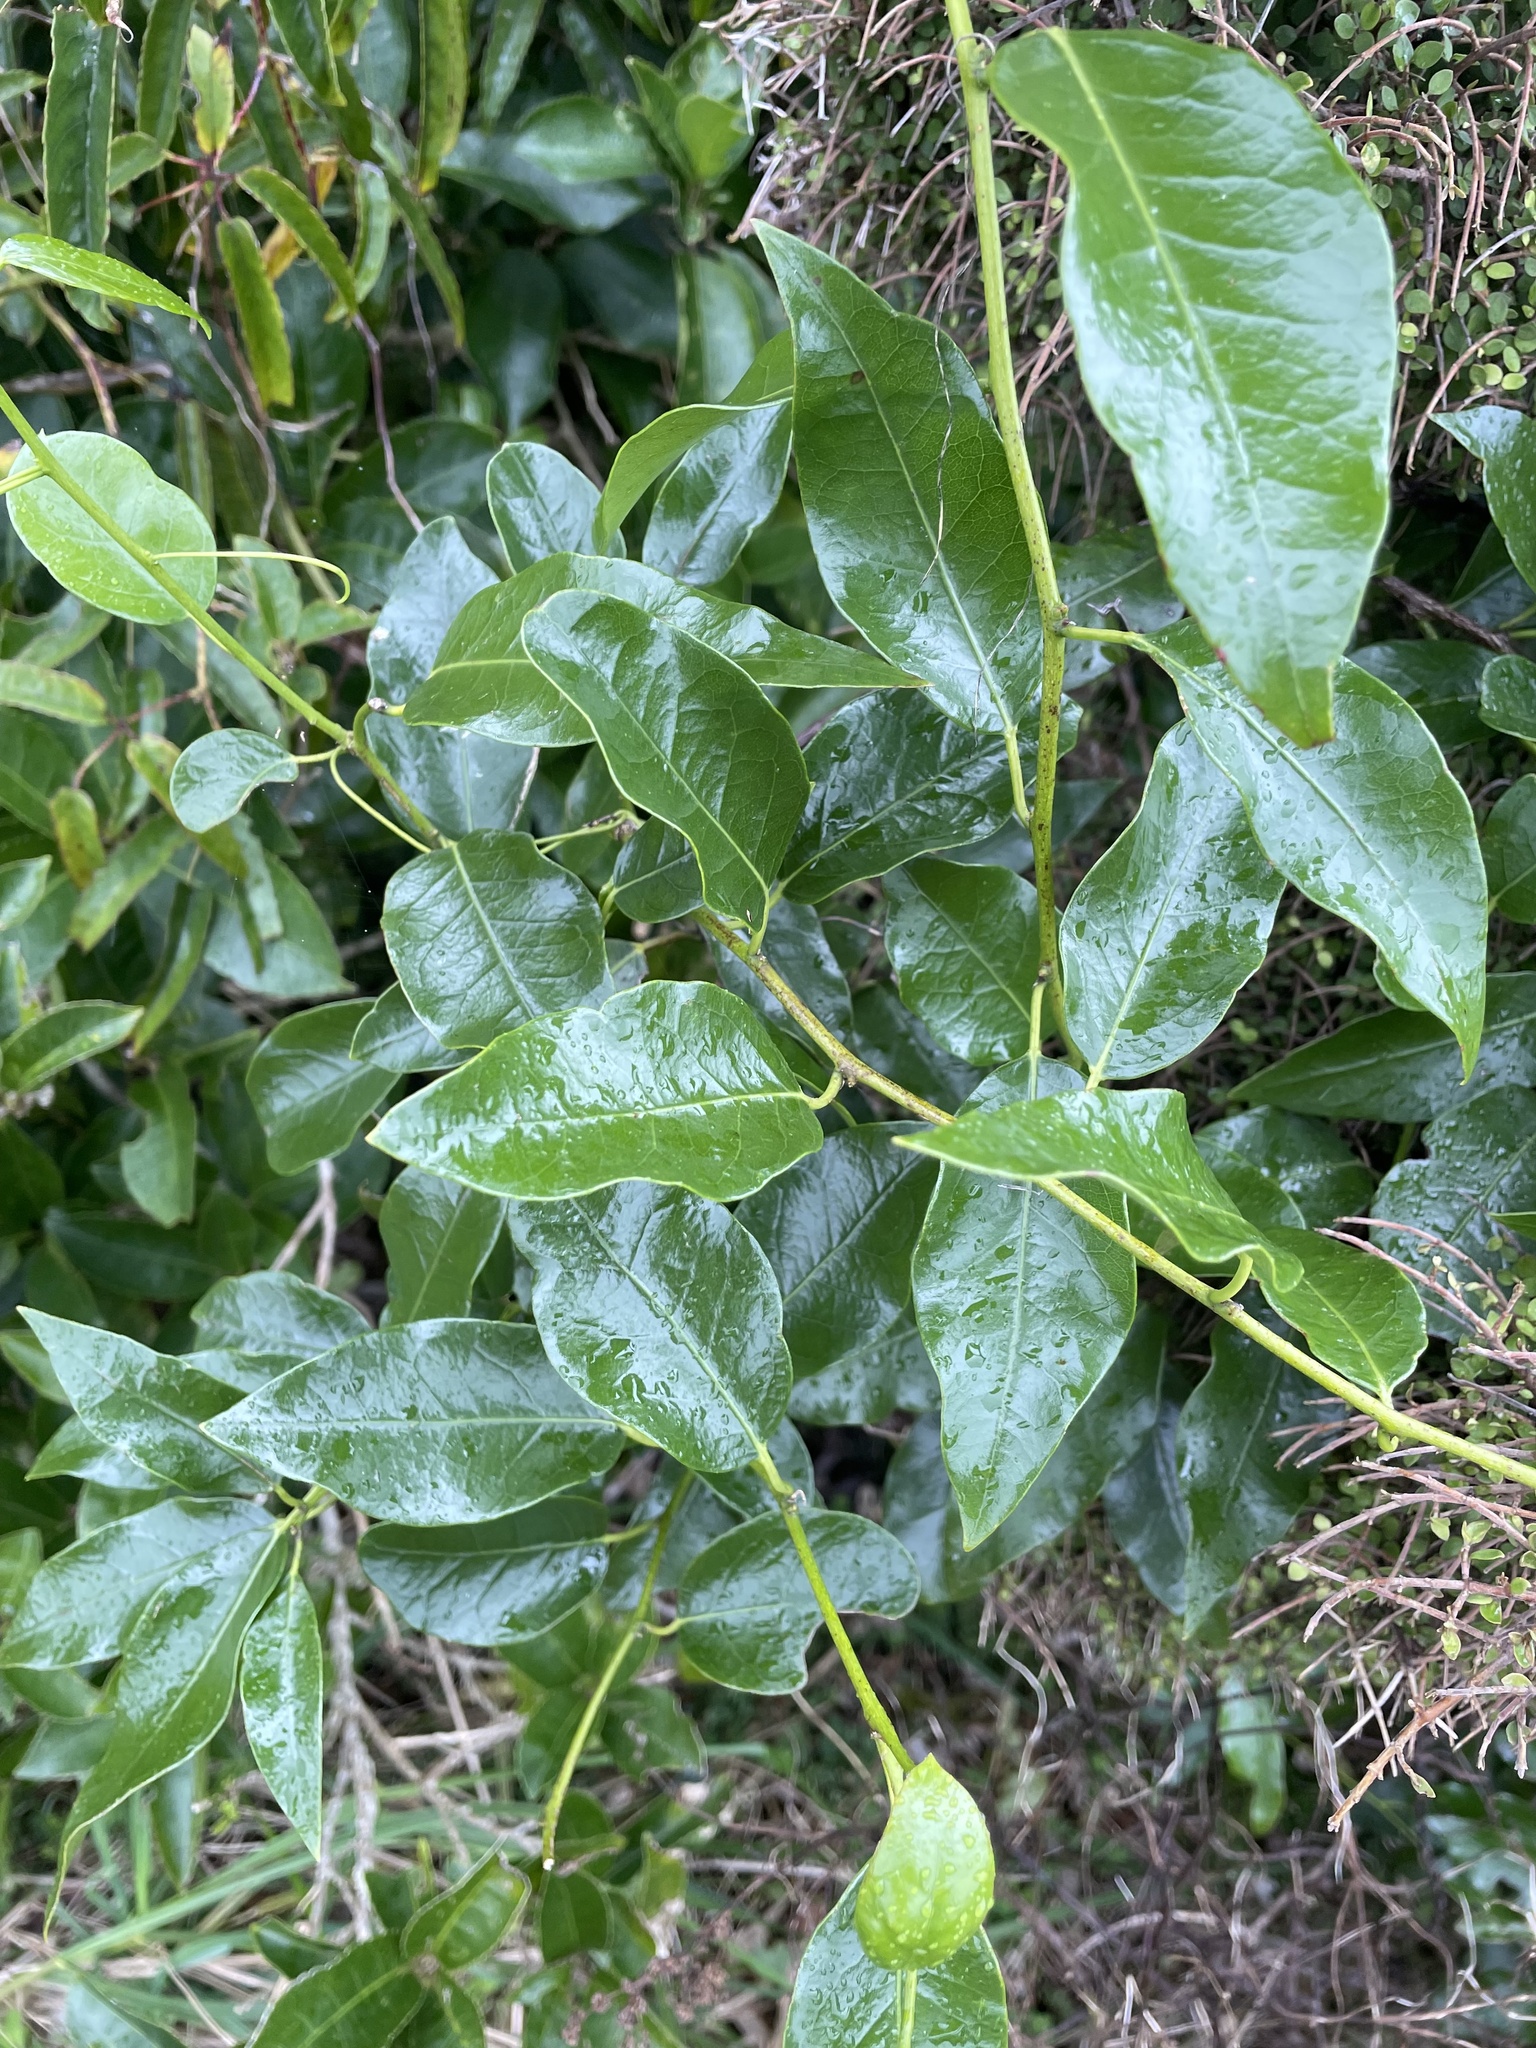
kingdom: Plantae
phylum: Tracheophyta
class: Magnoliopsida
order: Malpighiales
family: Passifloraceae
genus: Passiflora
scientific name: Passiflora tetrandra
